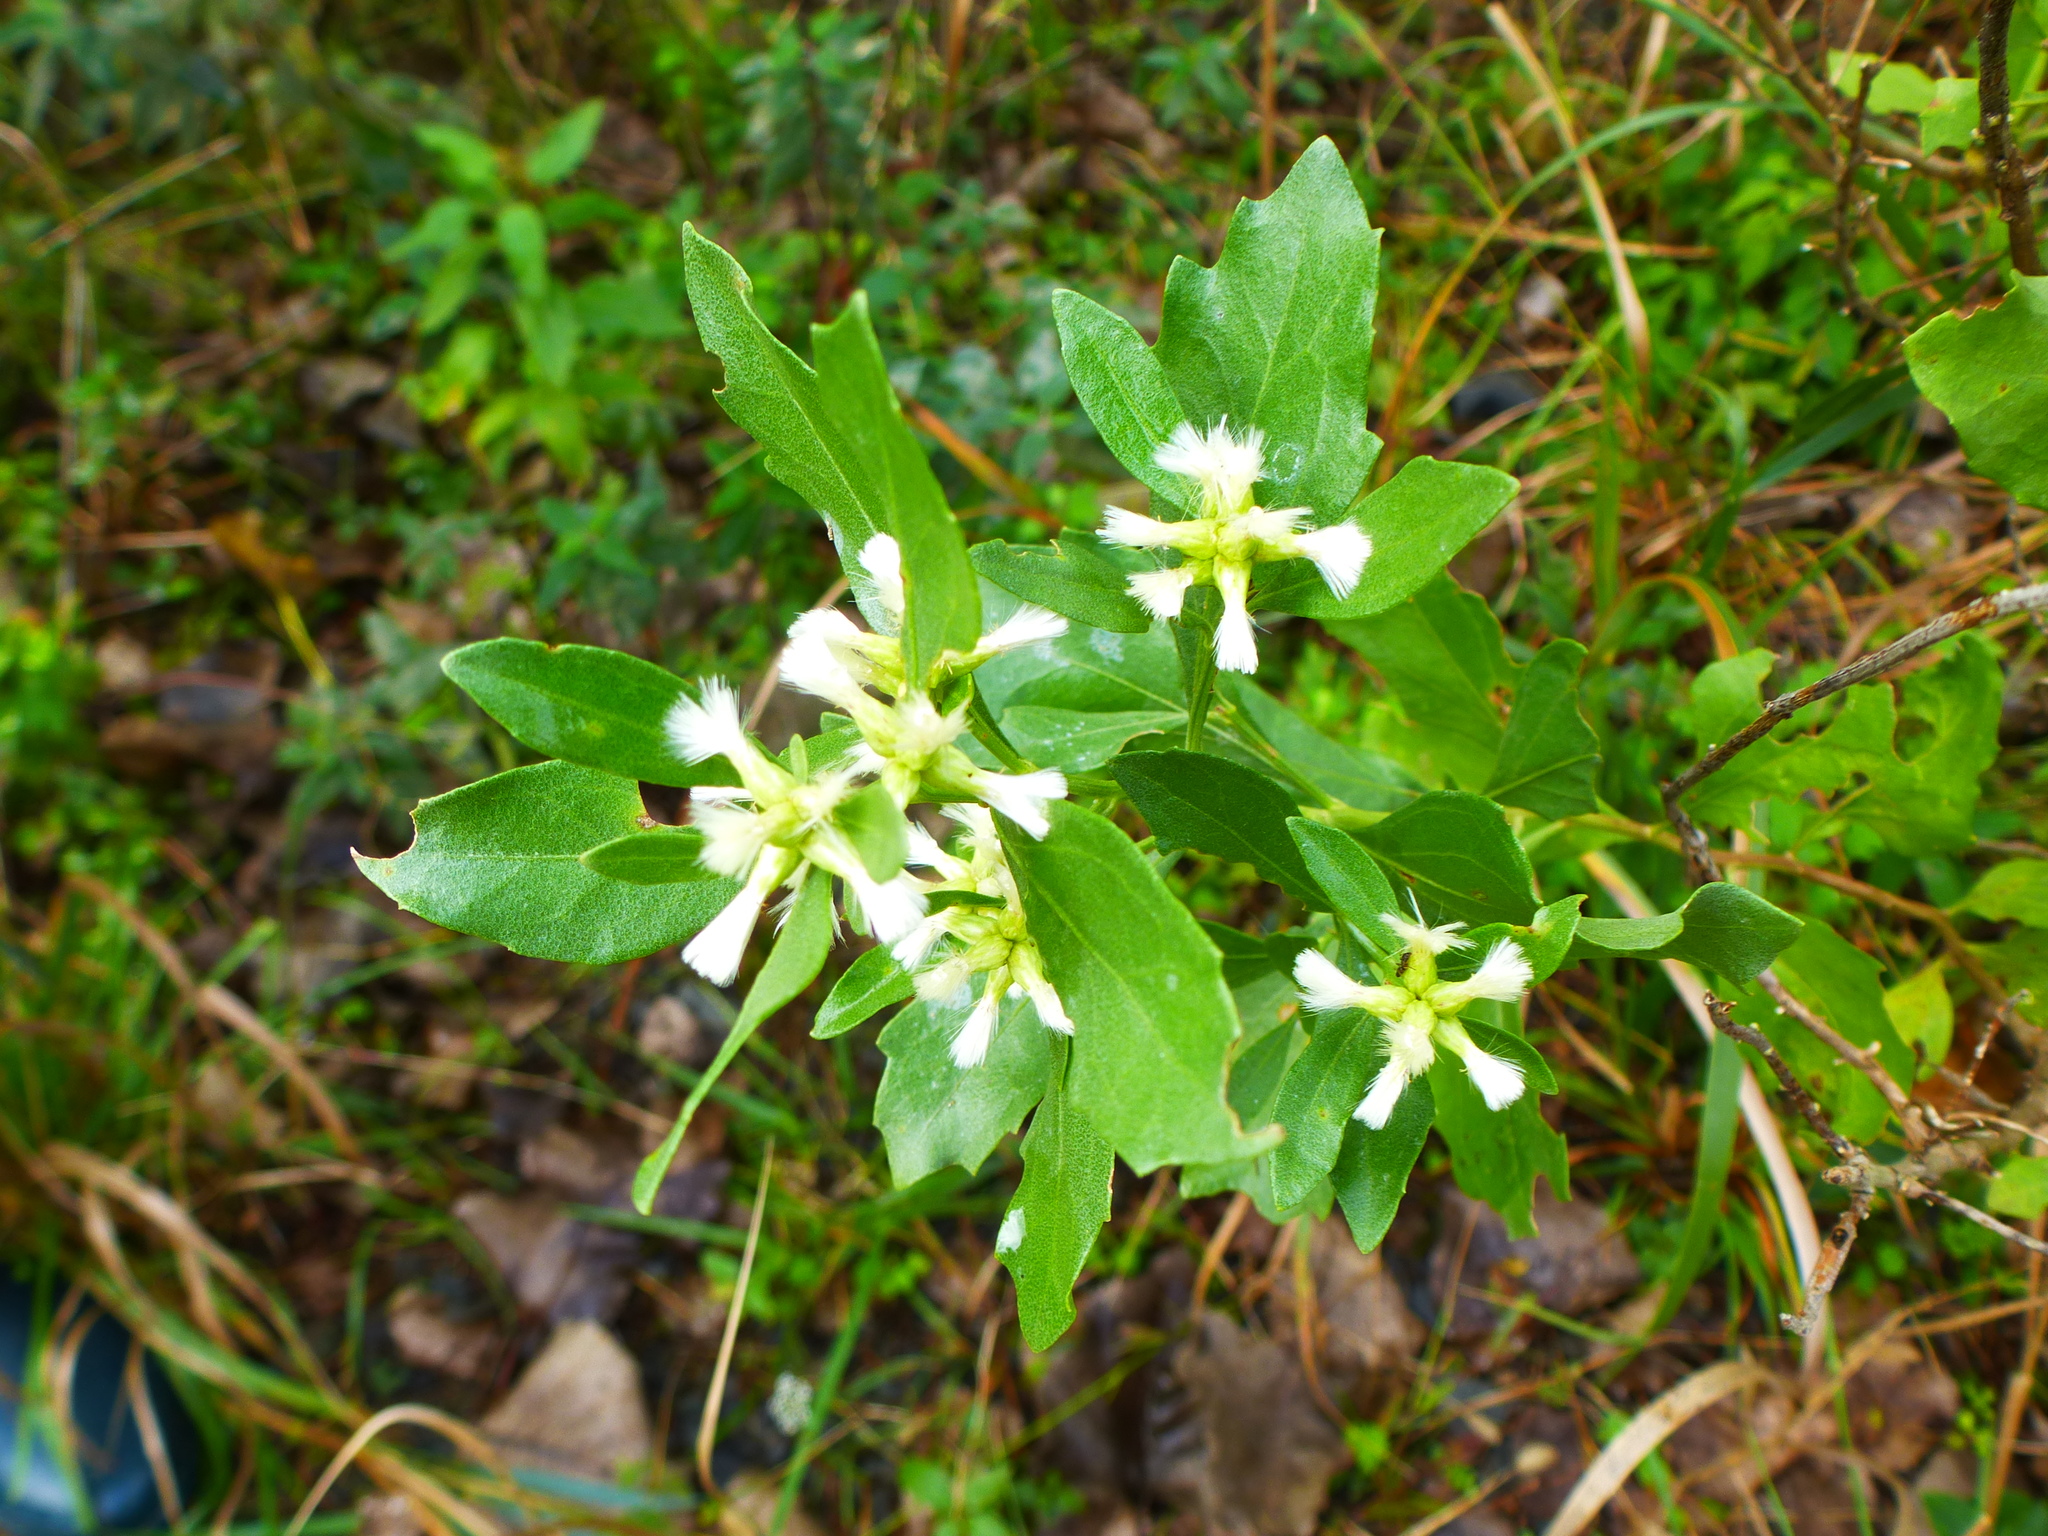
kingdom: Plantae
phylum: Tracheophyta
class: Magnoliopsida
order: Asterales
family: Asteraceae
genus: Baccharis
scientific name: Baccharis halimifolia
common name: Eastern baccharis
